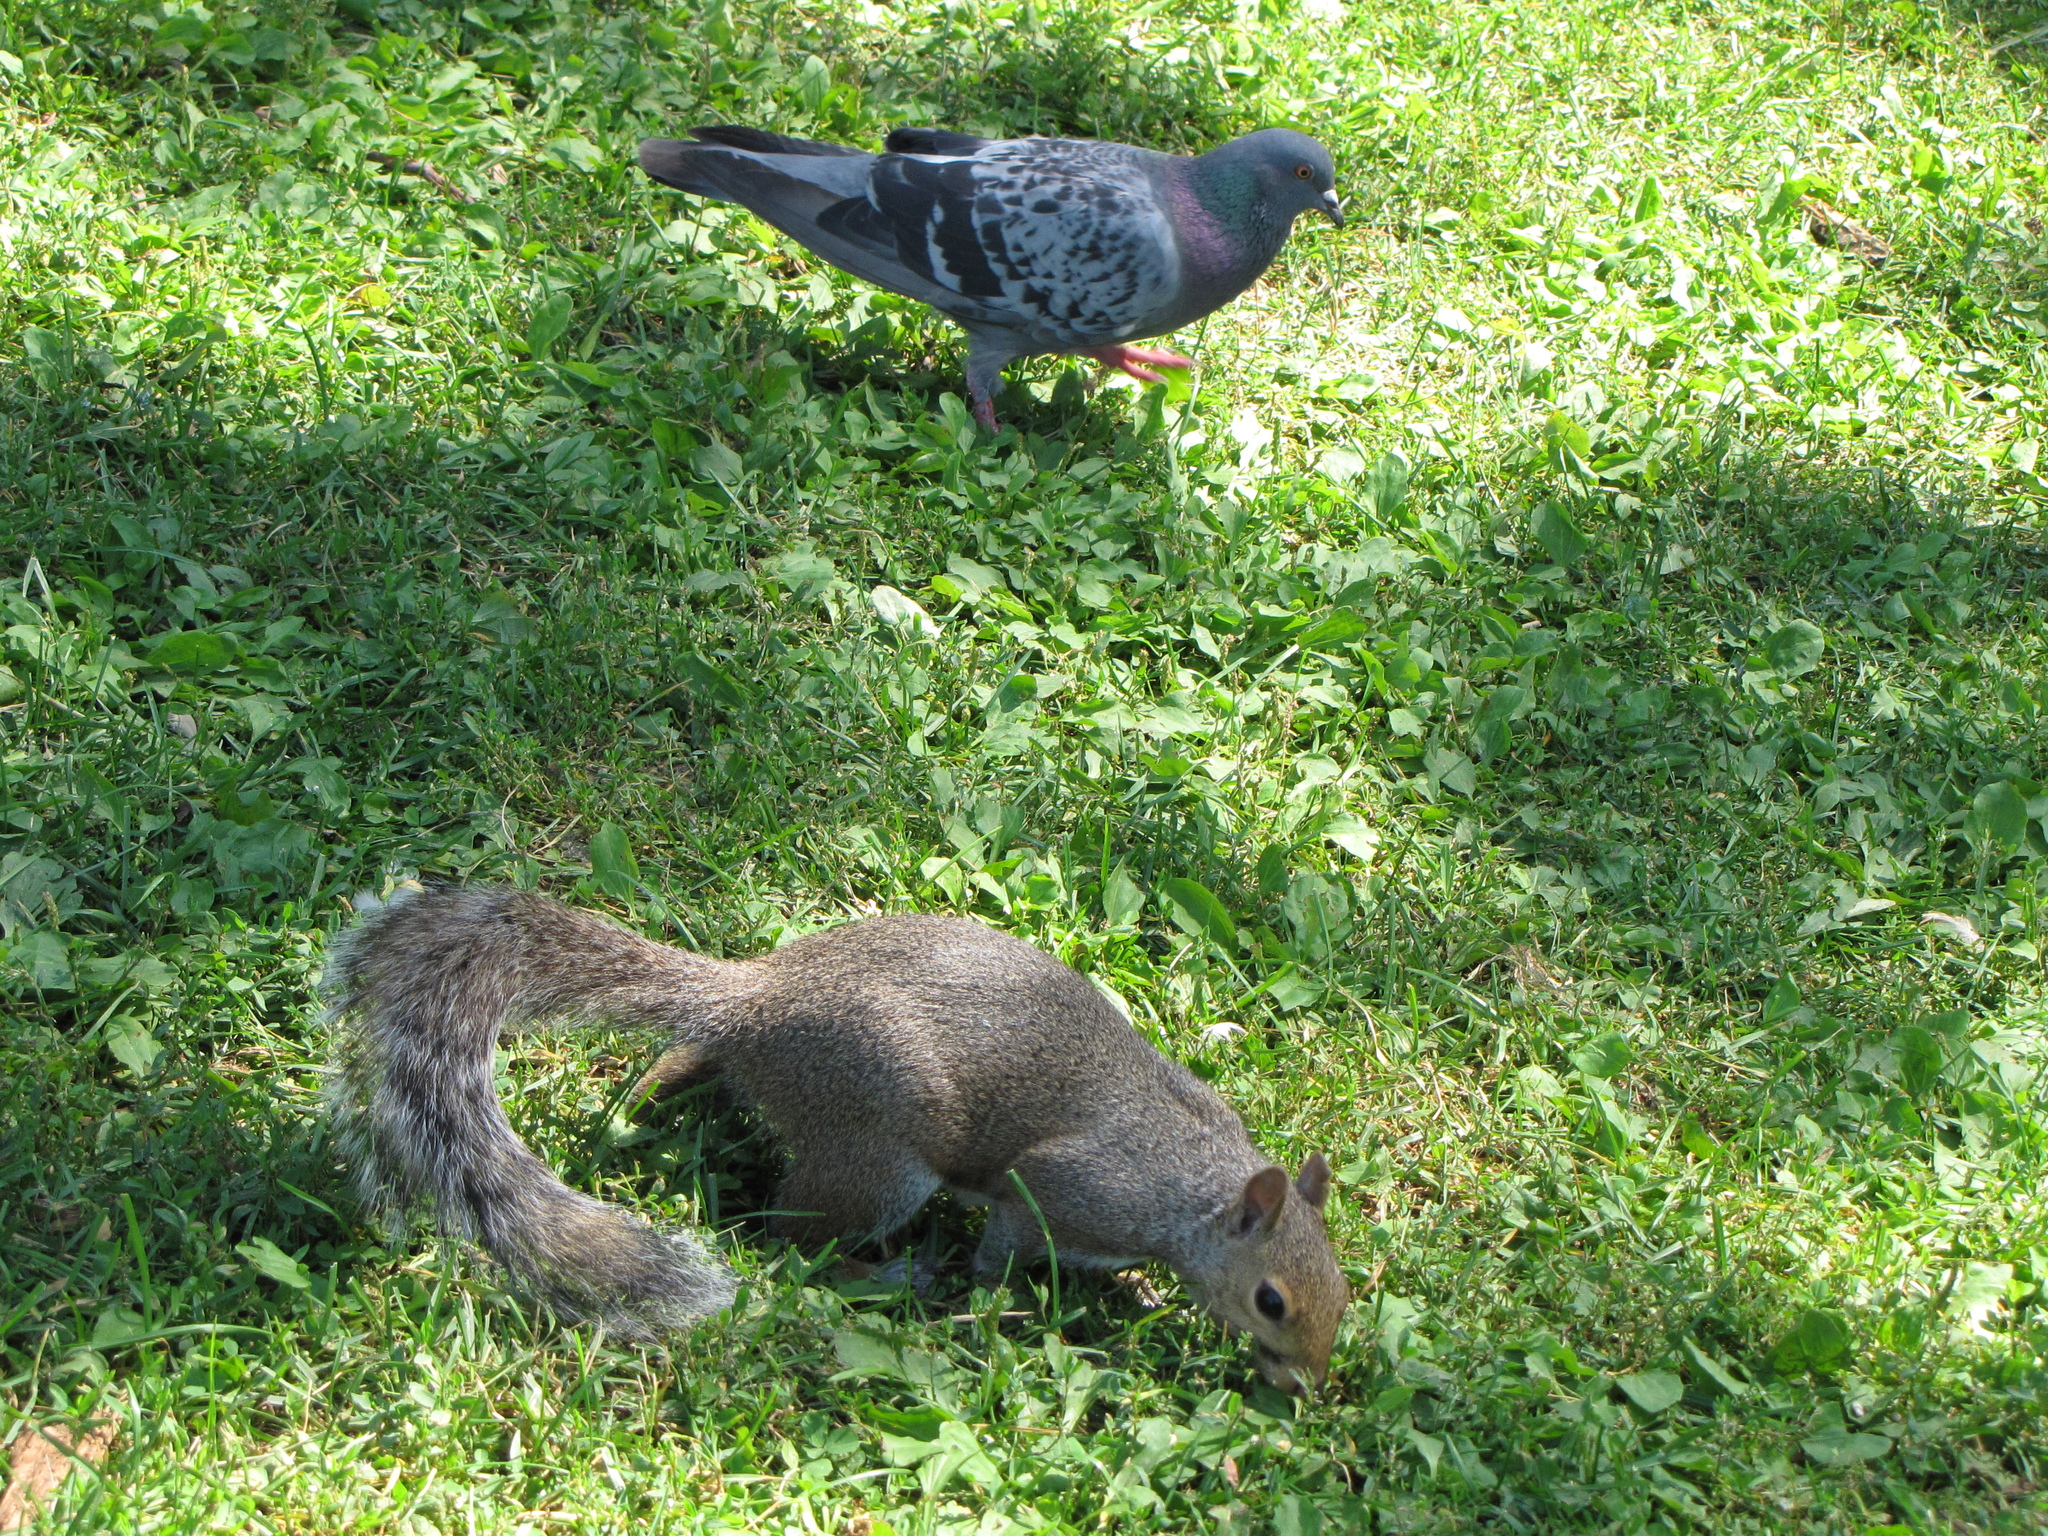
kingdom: Animalia
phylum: Chordata
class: Mammalia
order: Rodentia
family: Sciuridae
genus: Sciurus
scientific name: Sciurus carolinensis
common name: Eastern gray squirrel
